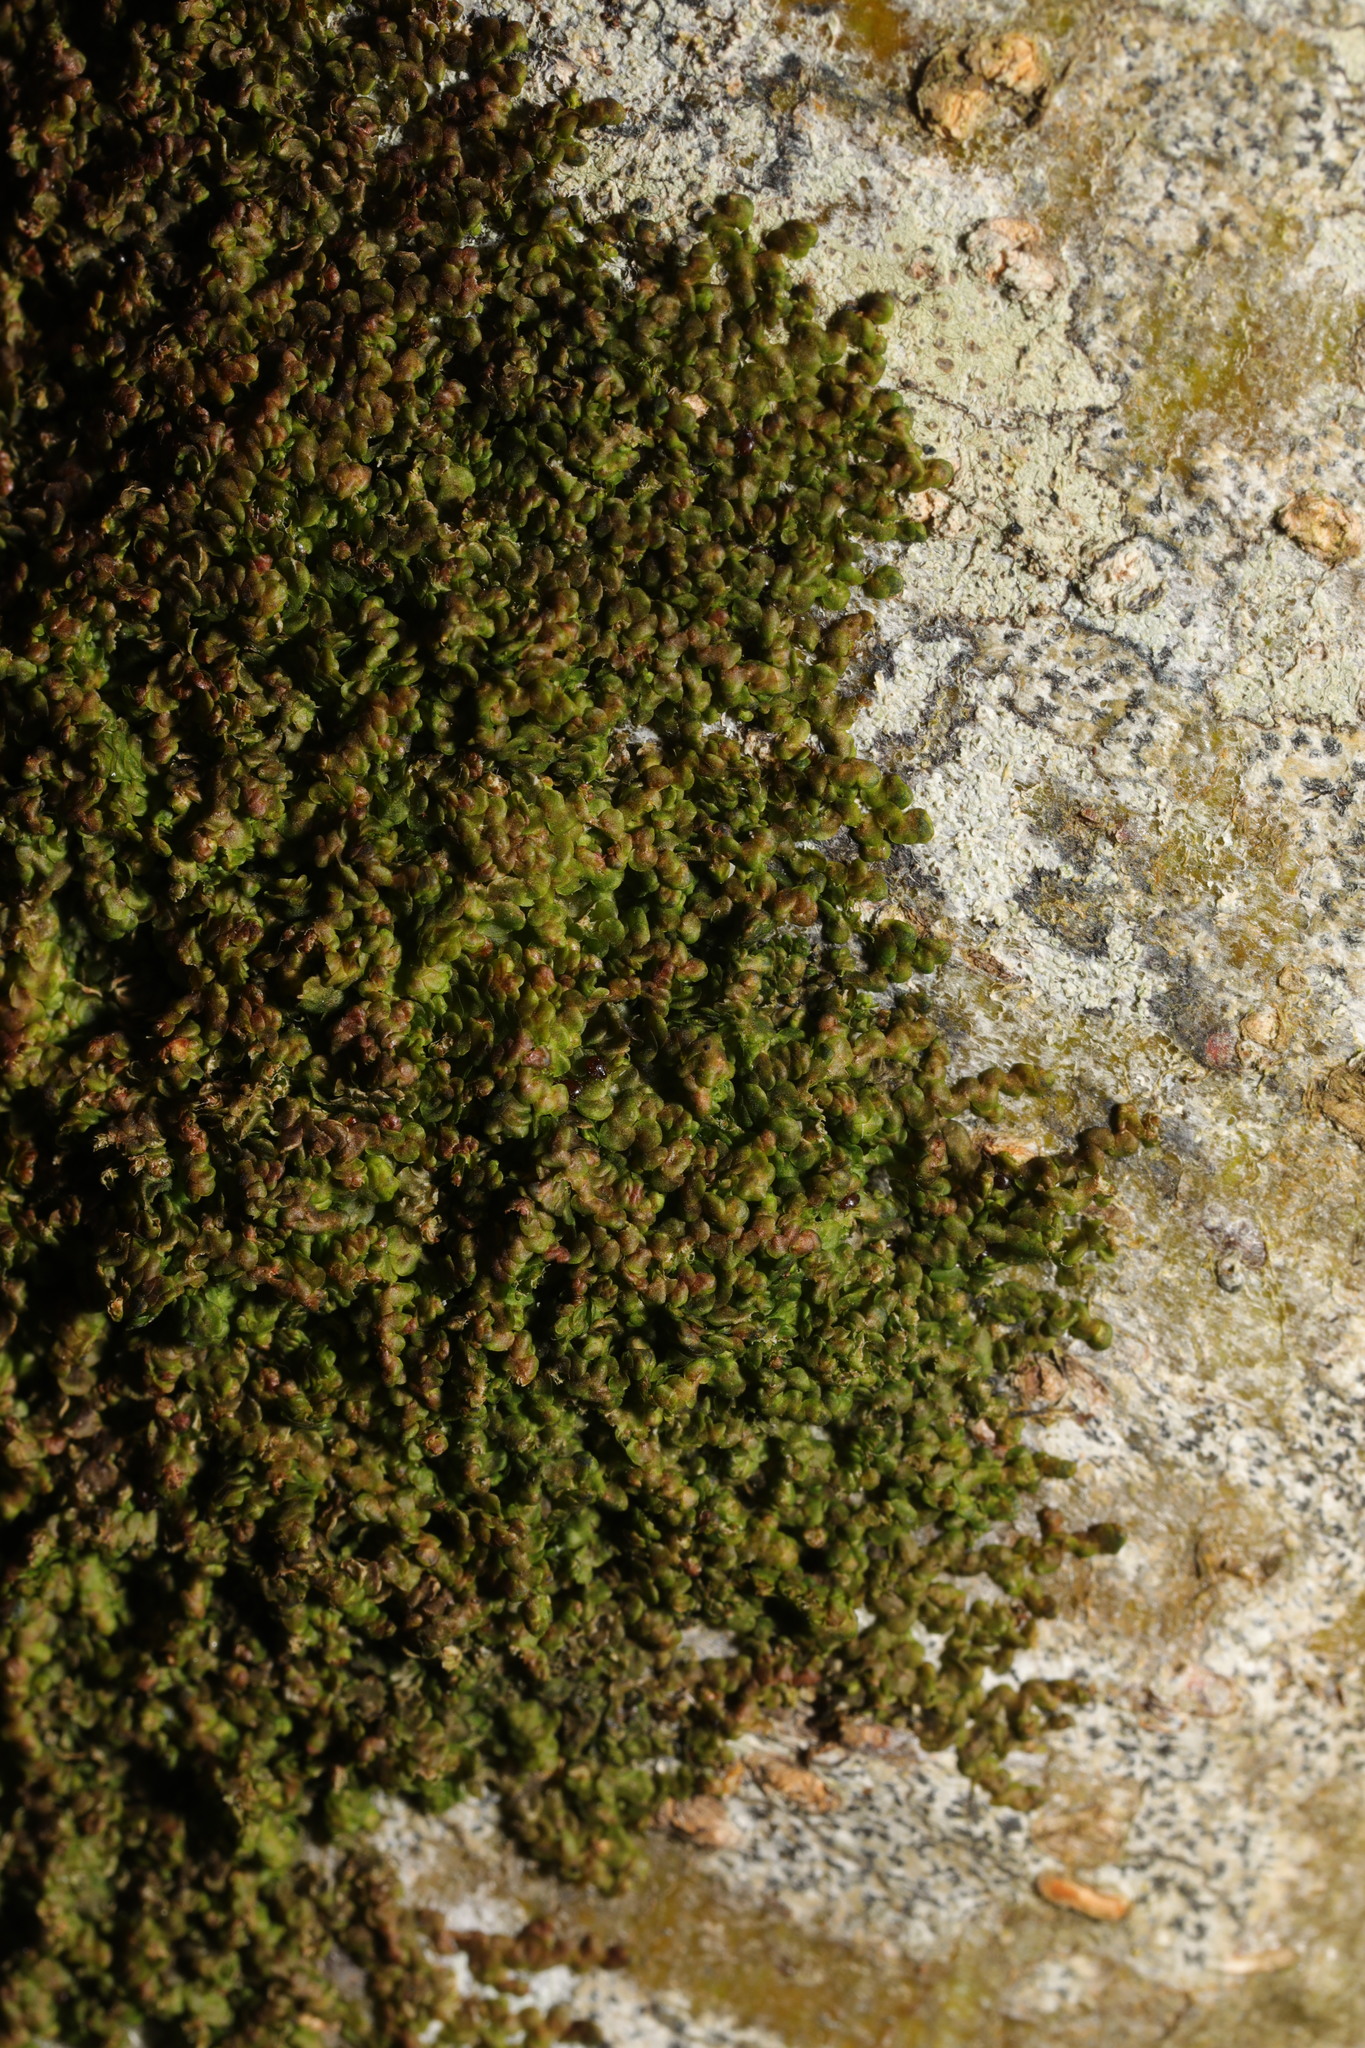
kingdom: Plantae
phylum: Marchantiophyta
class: Jungermanniopsida
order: Porellales
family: Frullaniaceae
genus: Frullania
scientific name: Frullania dilatata
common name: Dilated scalewort
